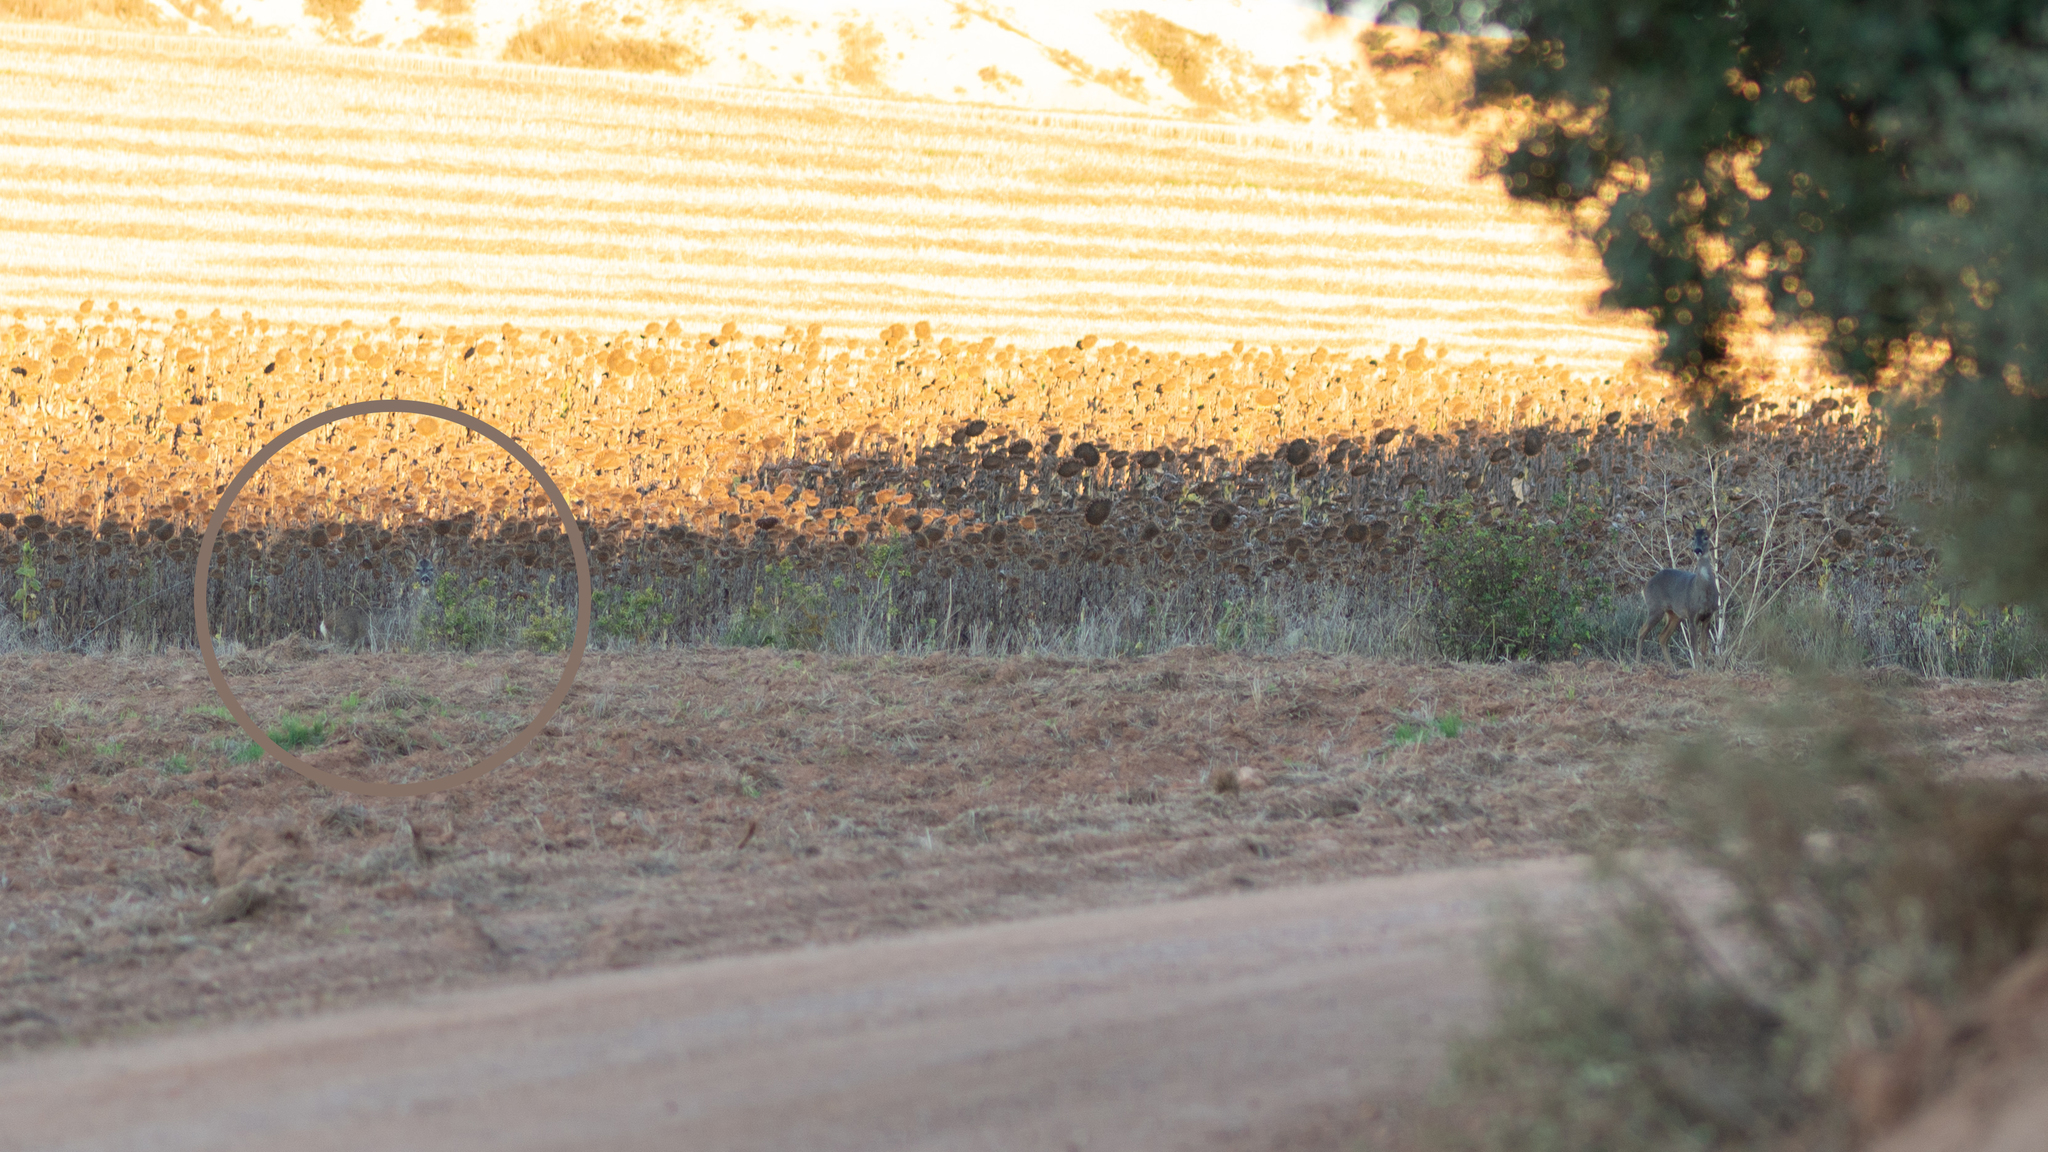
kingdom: Animalia
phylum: Chordata
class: Mammalia
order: Artiodactyla
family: Cervidae
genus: Capreolus
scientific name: Capreolus capreolus
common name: Western roe deer
